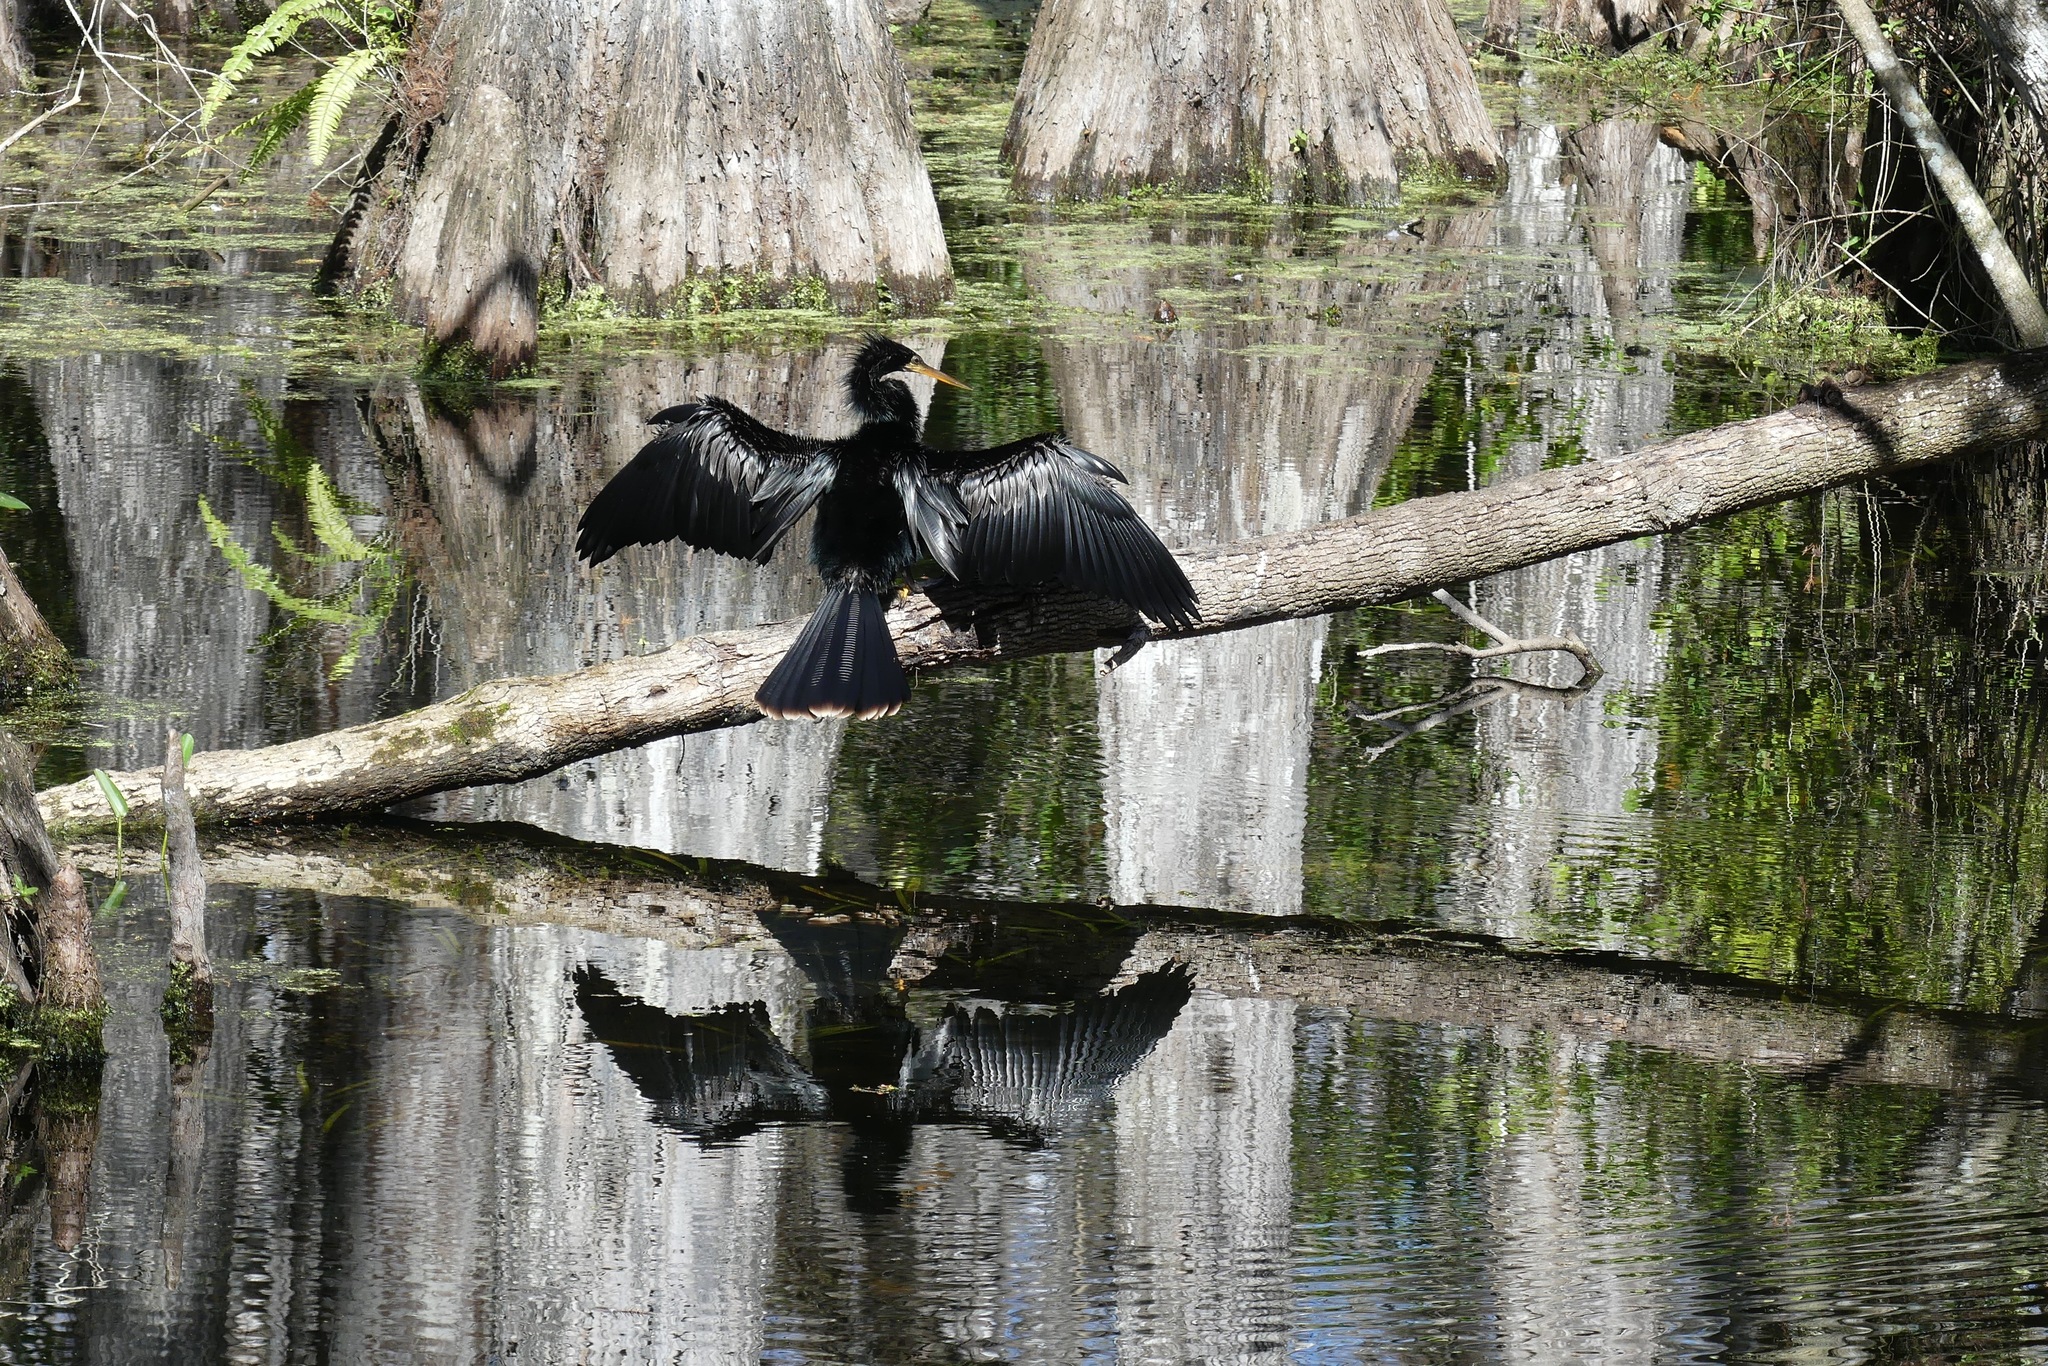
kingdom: Animalia
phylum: Chordata
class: Aves
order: Suliformes
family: Anhingidae
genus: Anhinga
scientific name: Anhinga anhinga
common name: Anhinga
